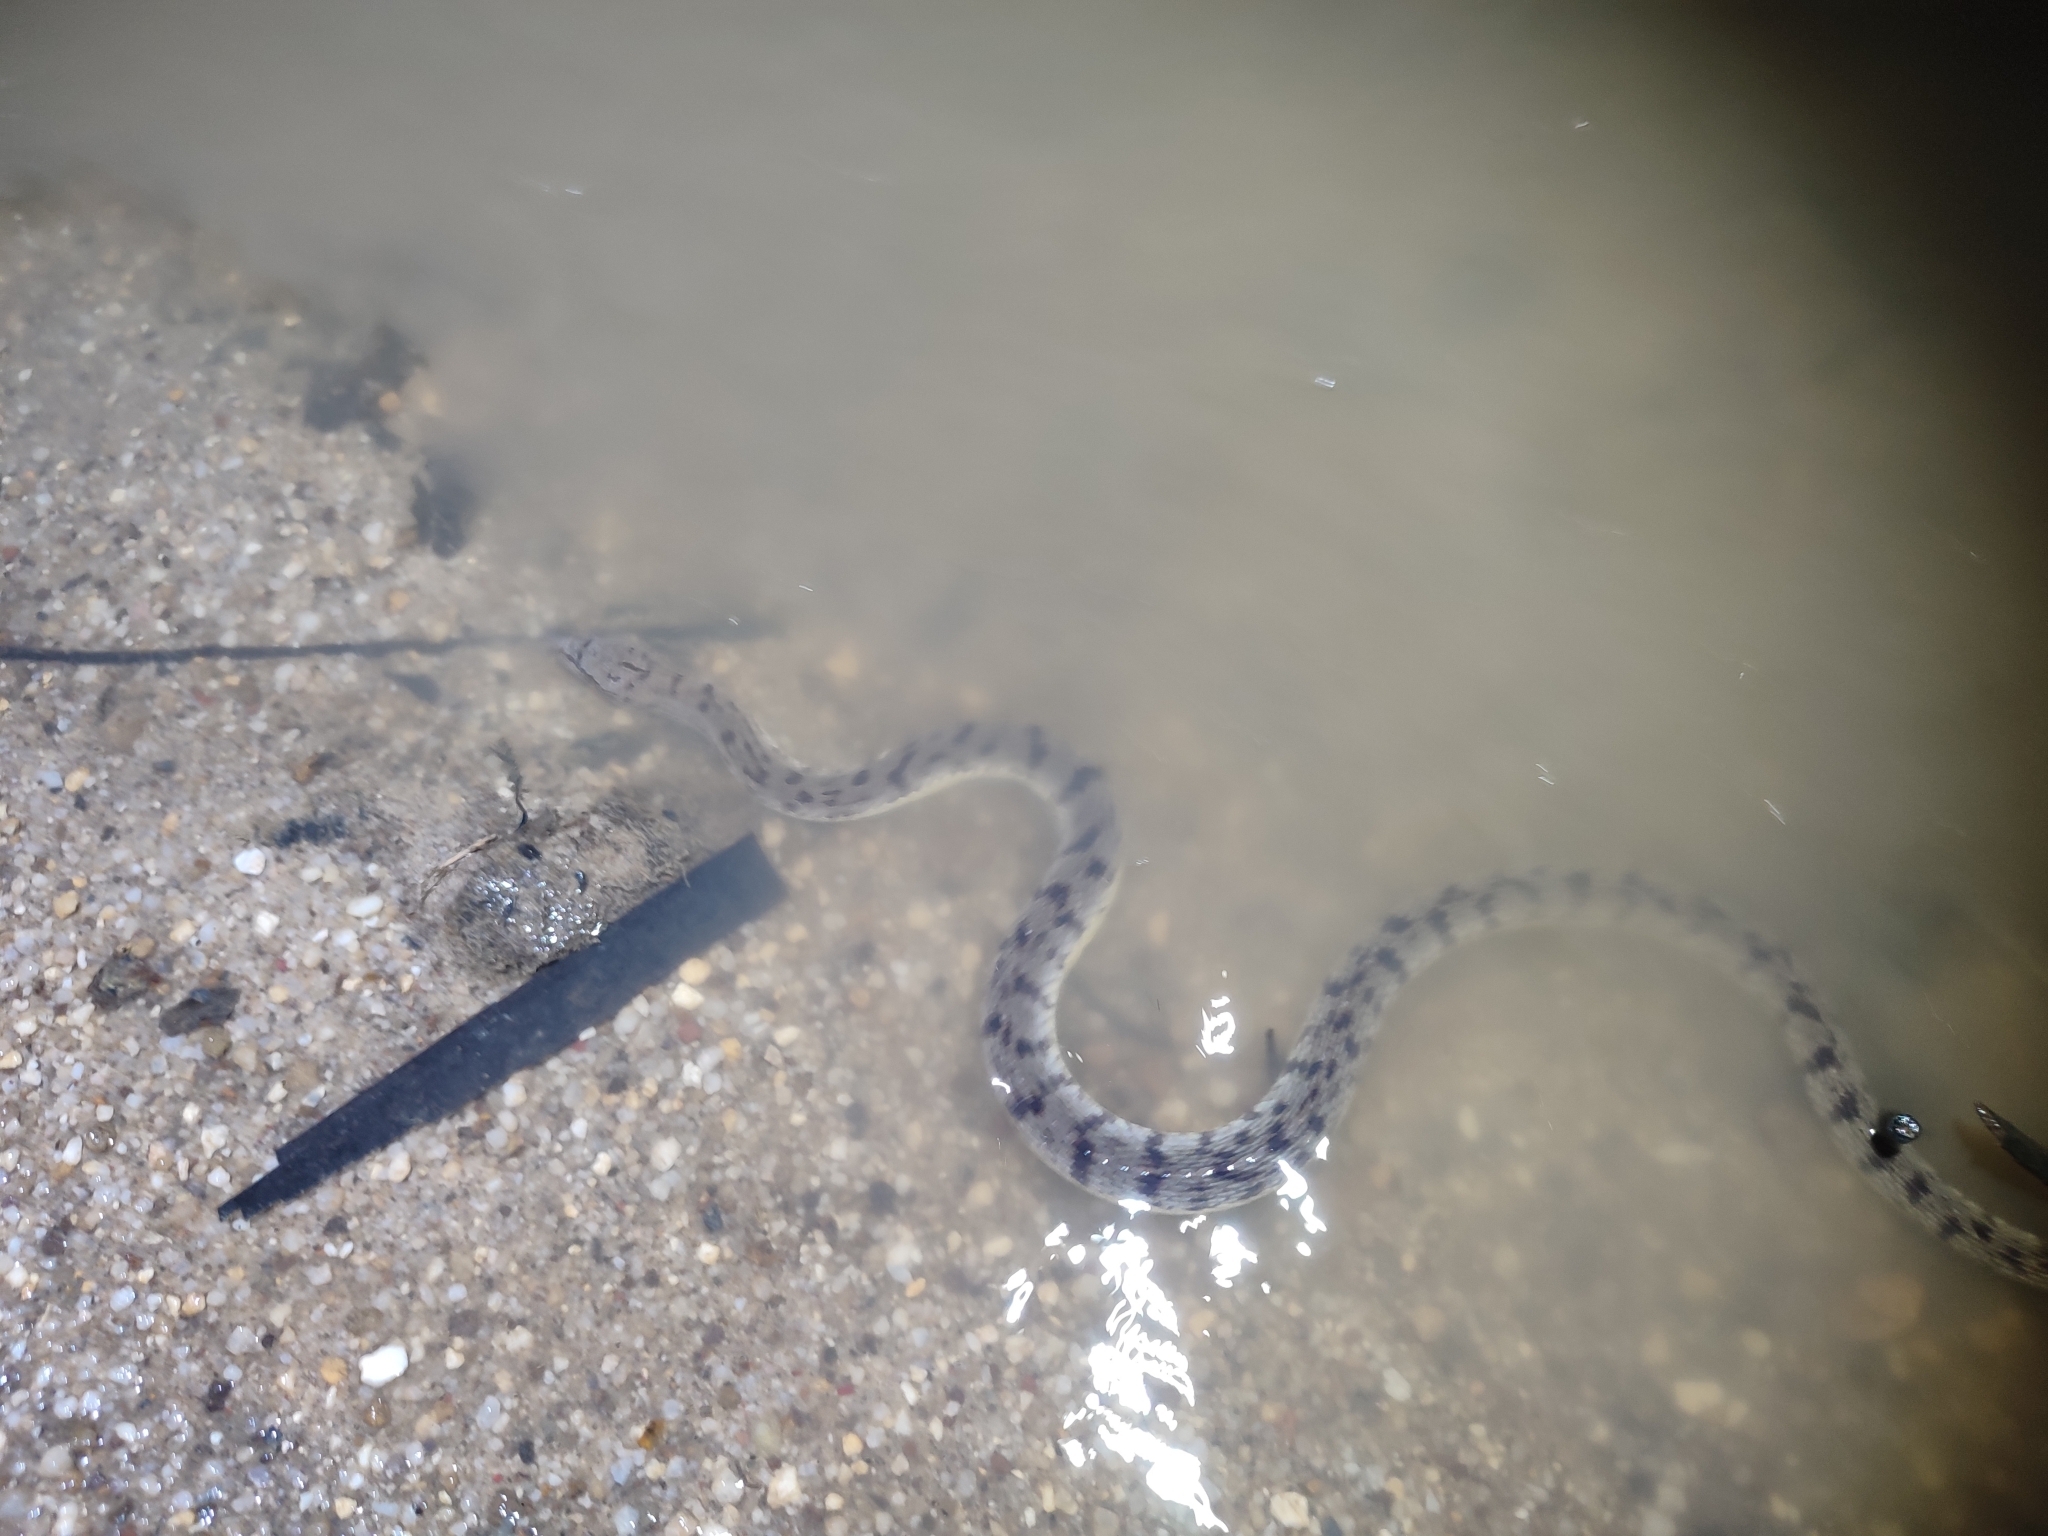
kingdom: Animalia
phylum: Chordata
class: Squamata
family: Homalopsidae
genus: Cerberus
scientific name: Cerberus schneiderii
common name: Southeast asian bockadam
